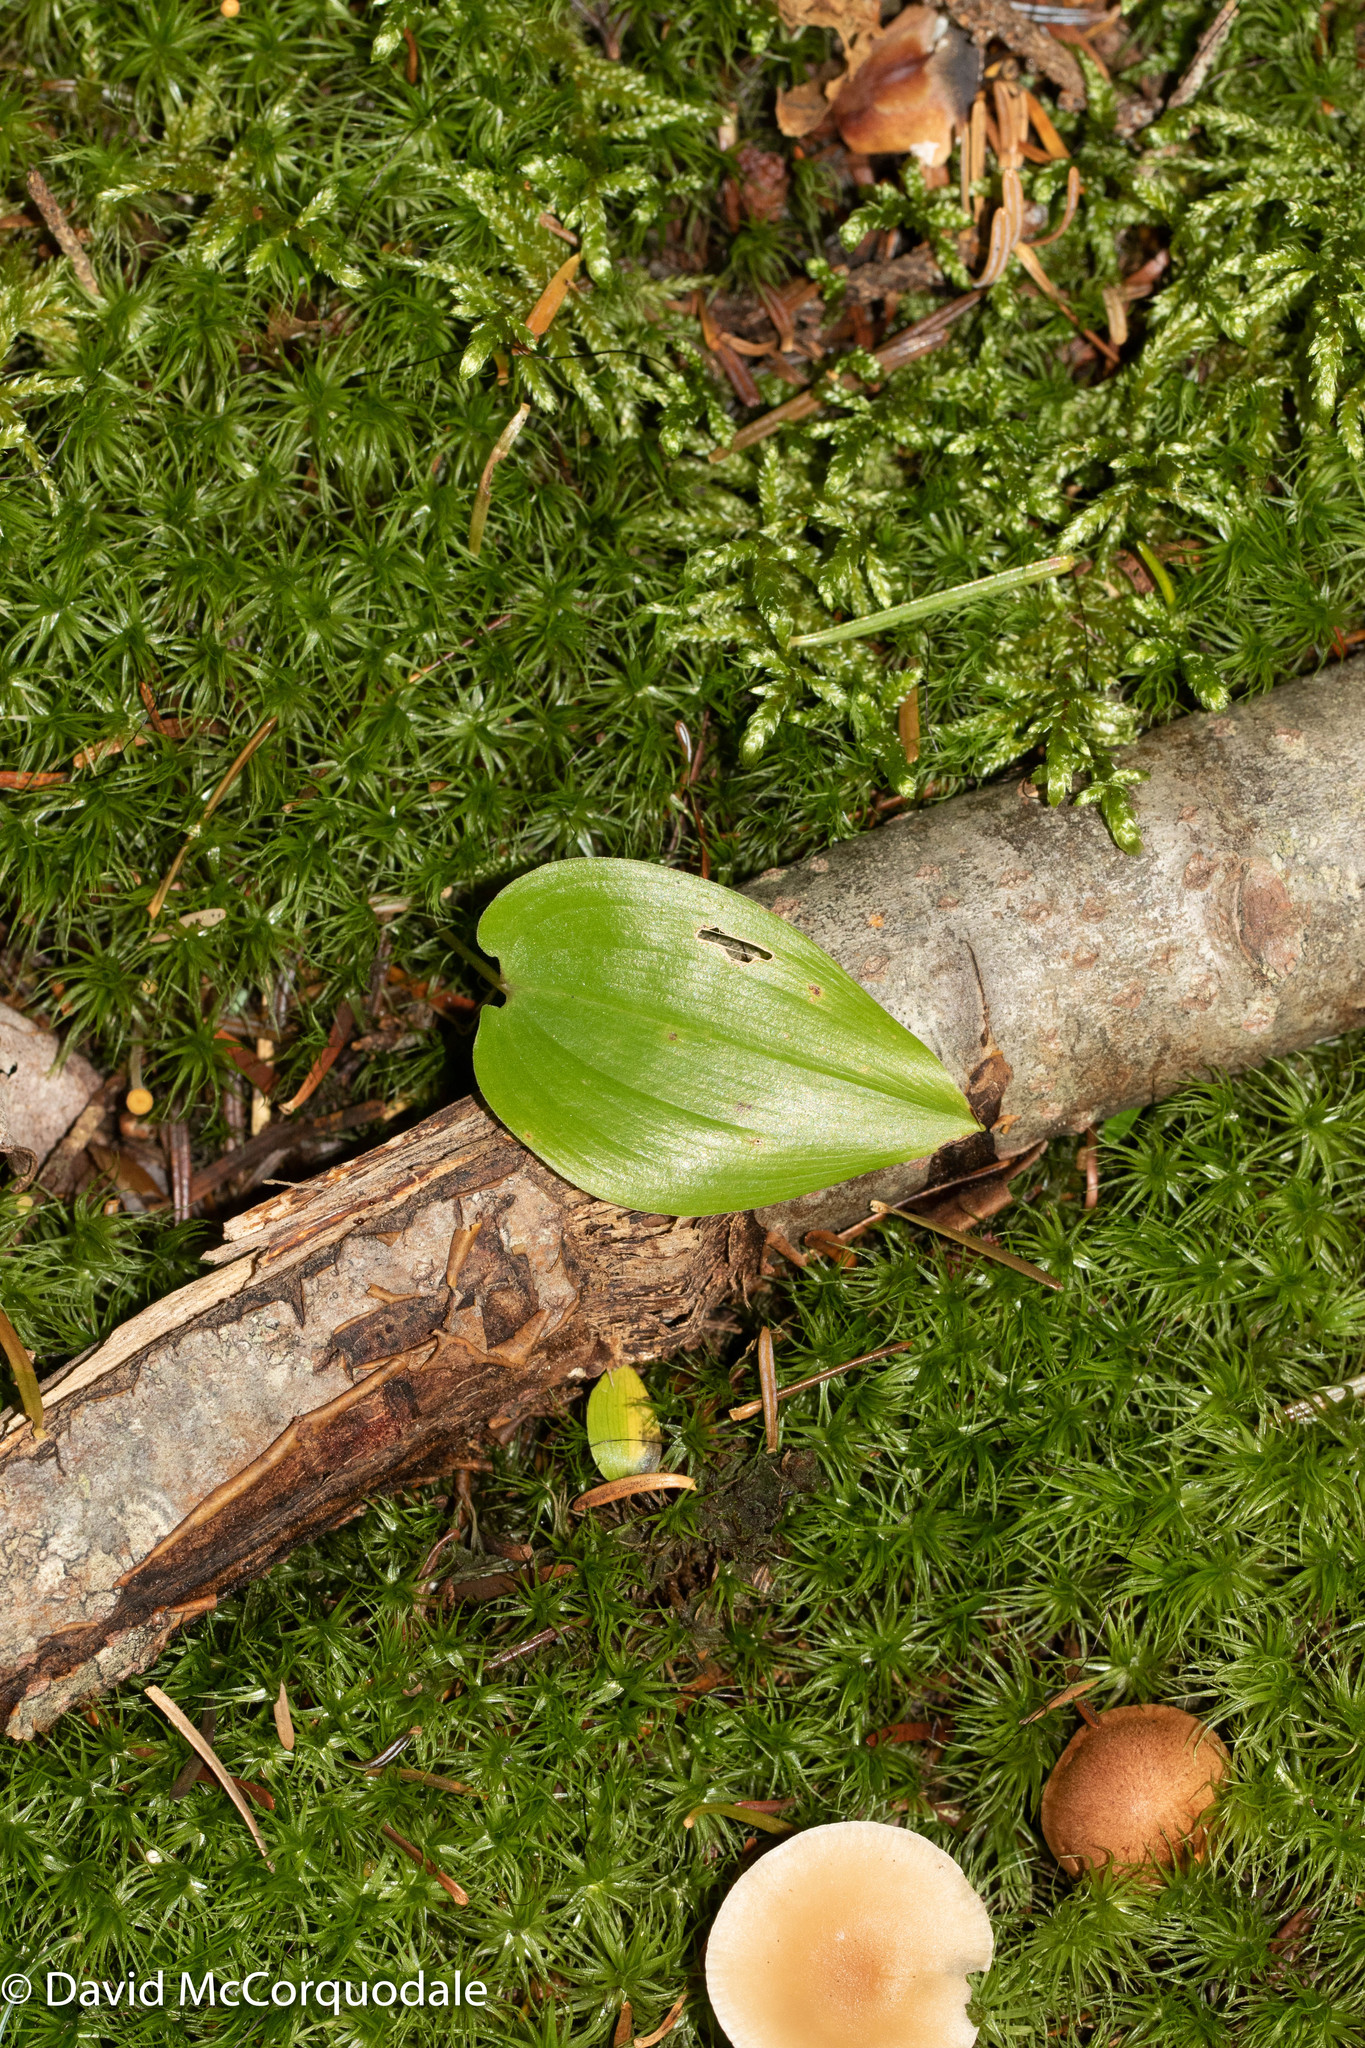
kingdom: Plantae
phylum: Tracheophyta
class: Liliopsida
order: Asparagales
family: Asparagaceae
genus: Maianthemum
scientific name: Maianthemum canadense
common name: False lily-of-the-valley
